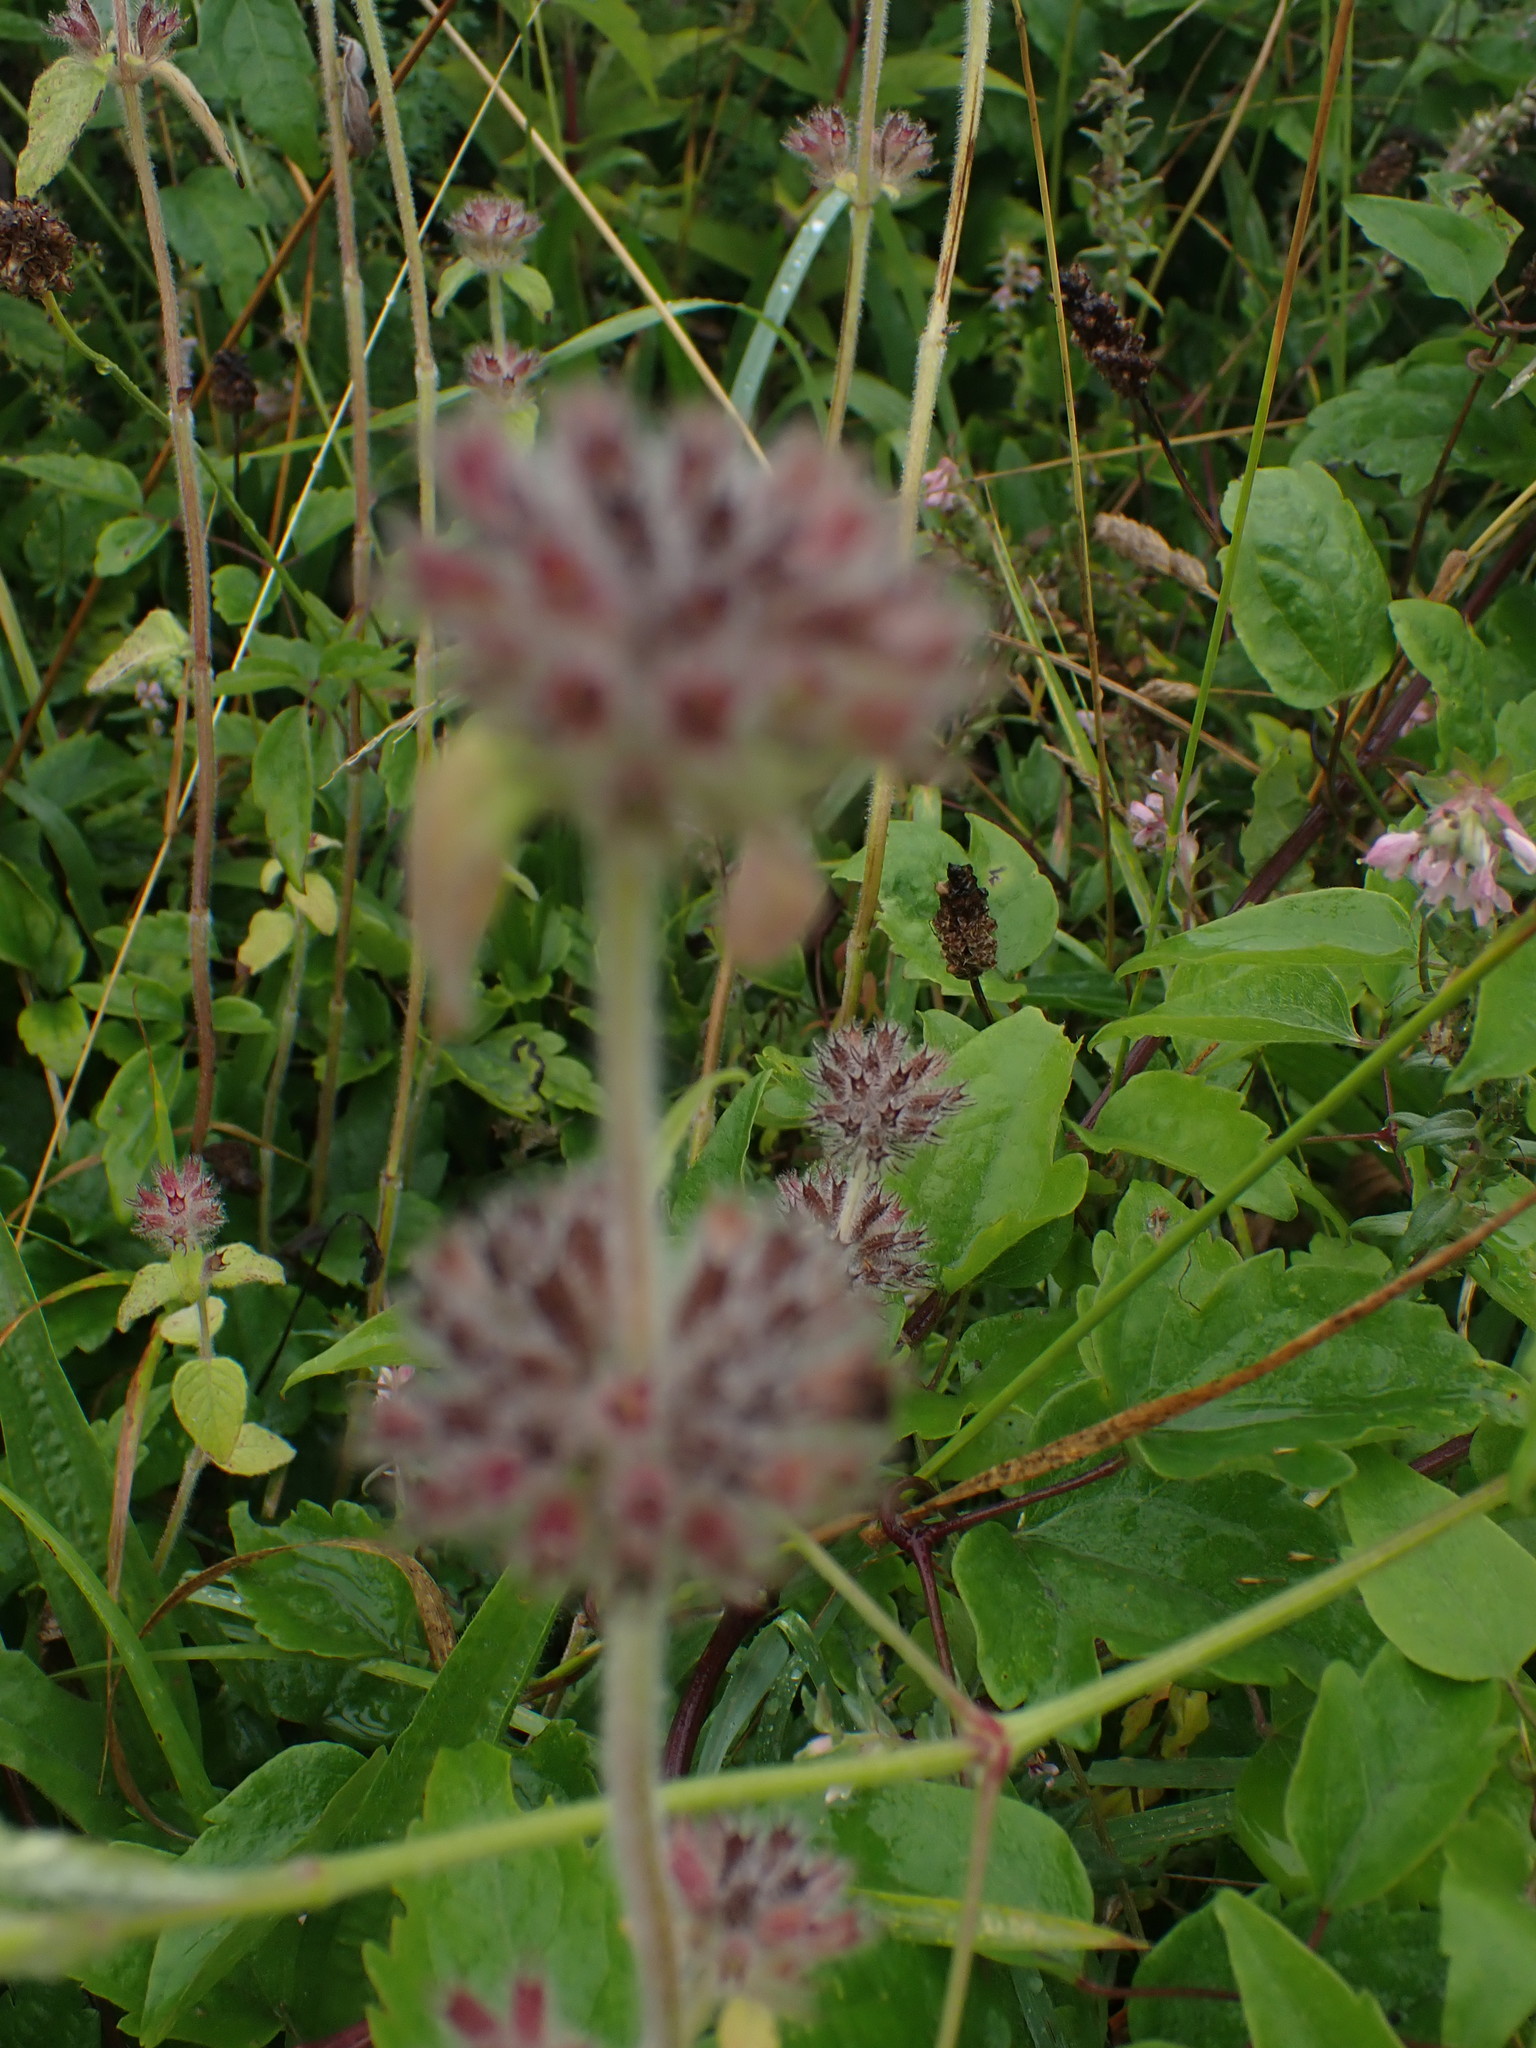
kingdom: Plantae
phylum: Tracheophyta
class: Magnoliopsida
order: Lamiales
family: Lamiaceae
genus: Clinopodium
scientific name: Clinopodium vulgare
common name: Wild basil
